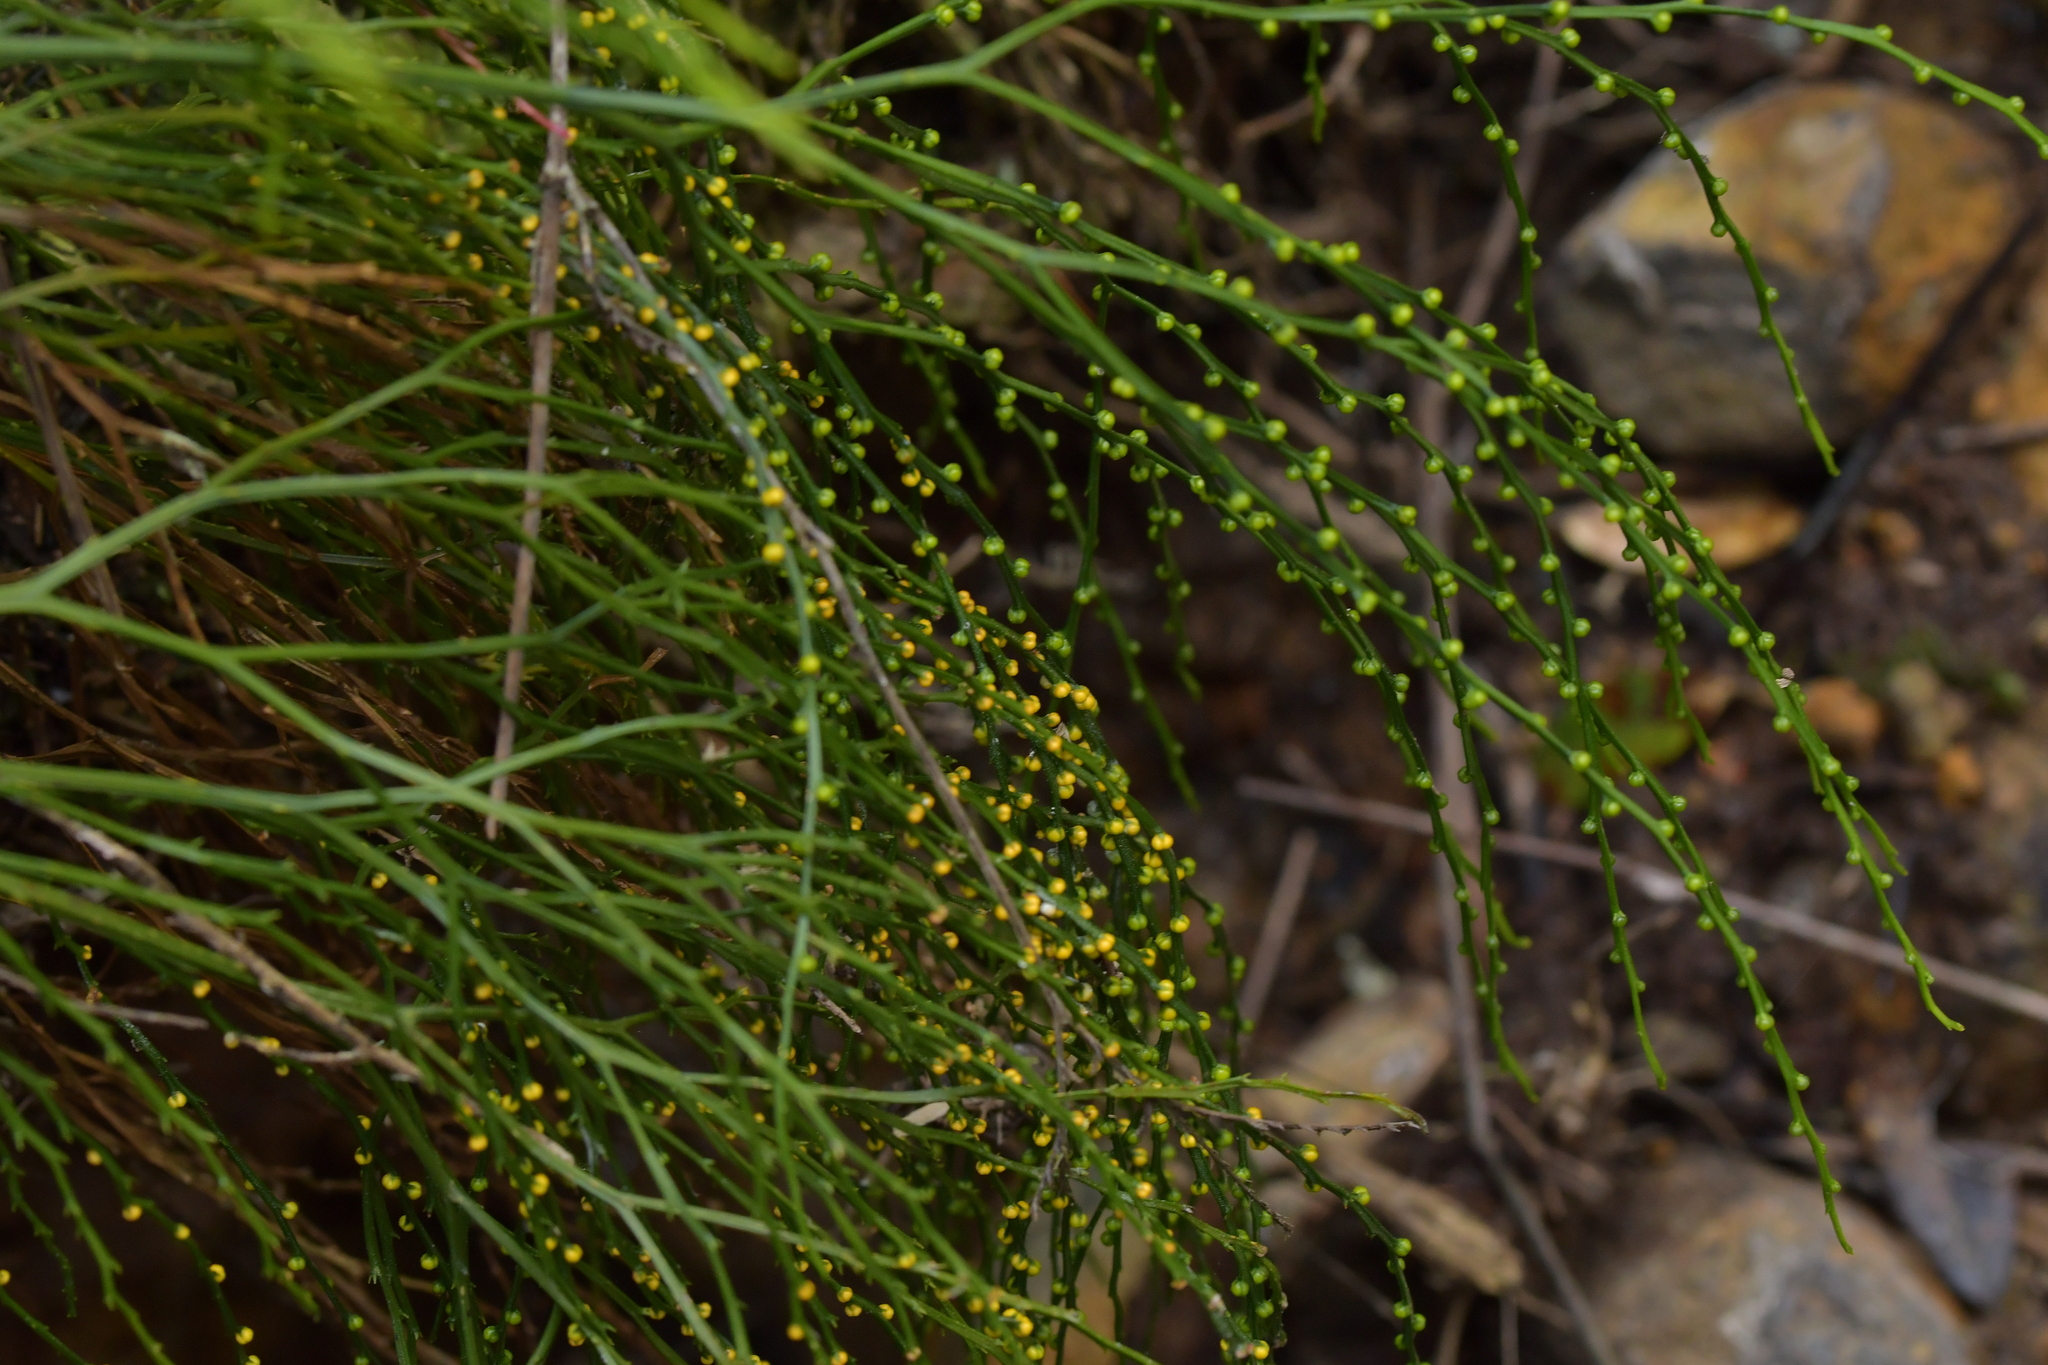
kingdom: Plantae
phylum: Tracheophyta
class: Polypodiopsida
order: Psilotales
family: Psilotaceae
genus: Psilotum
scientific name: Psilotum nudum
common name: Skeleton fork fern
